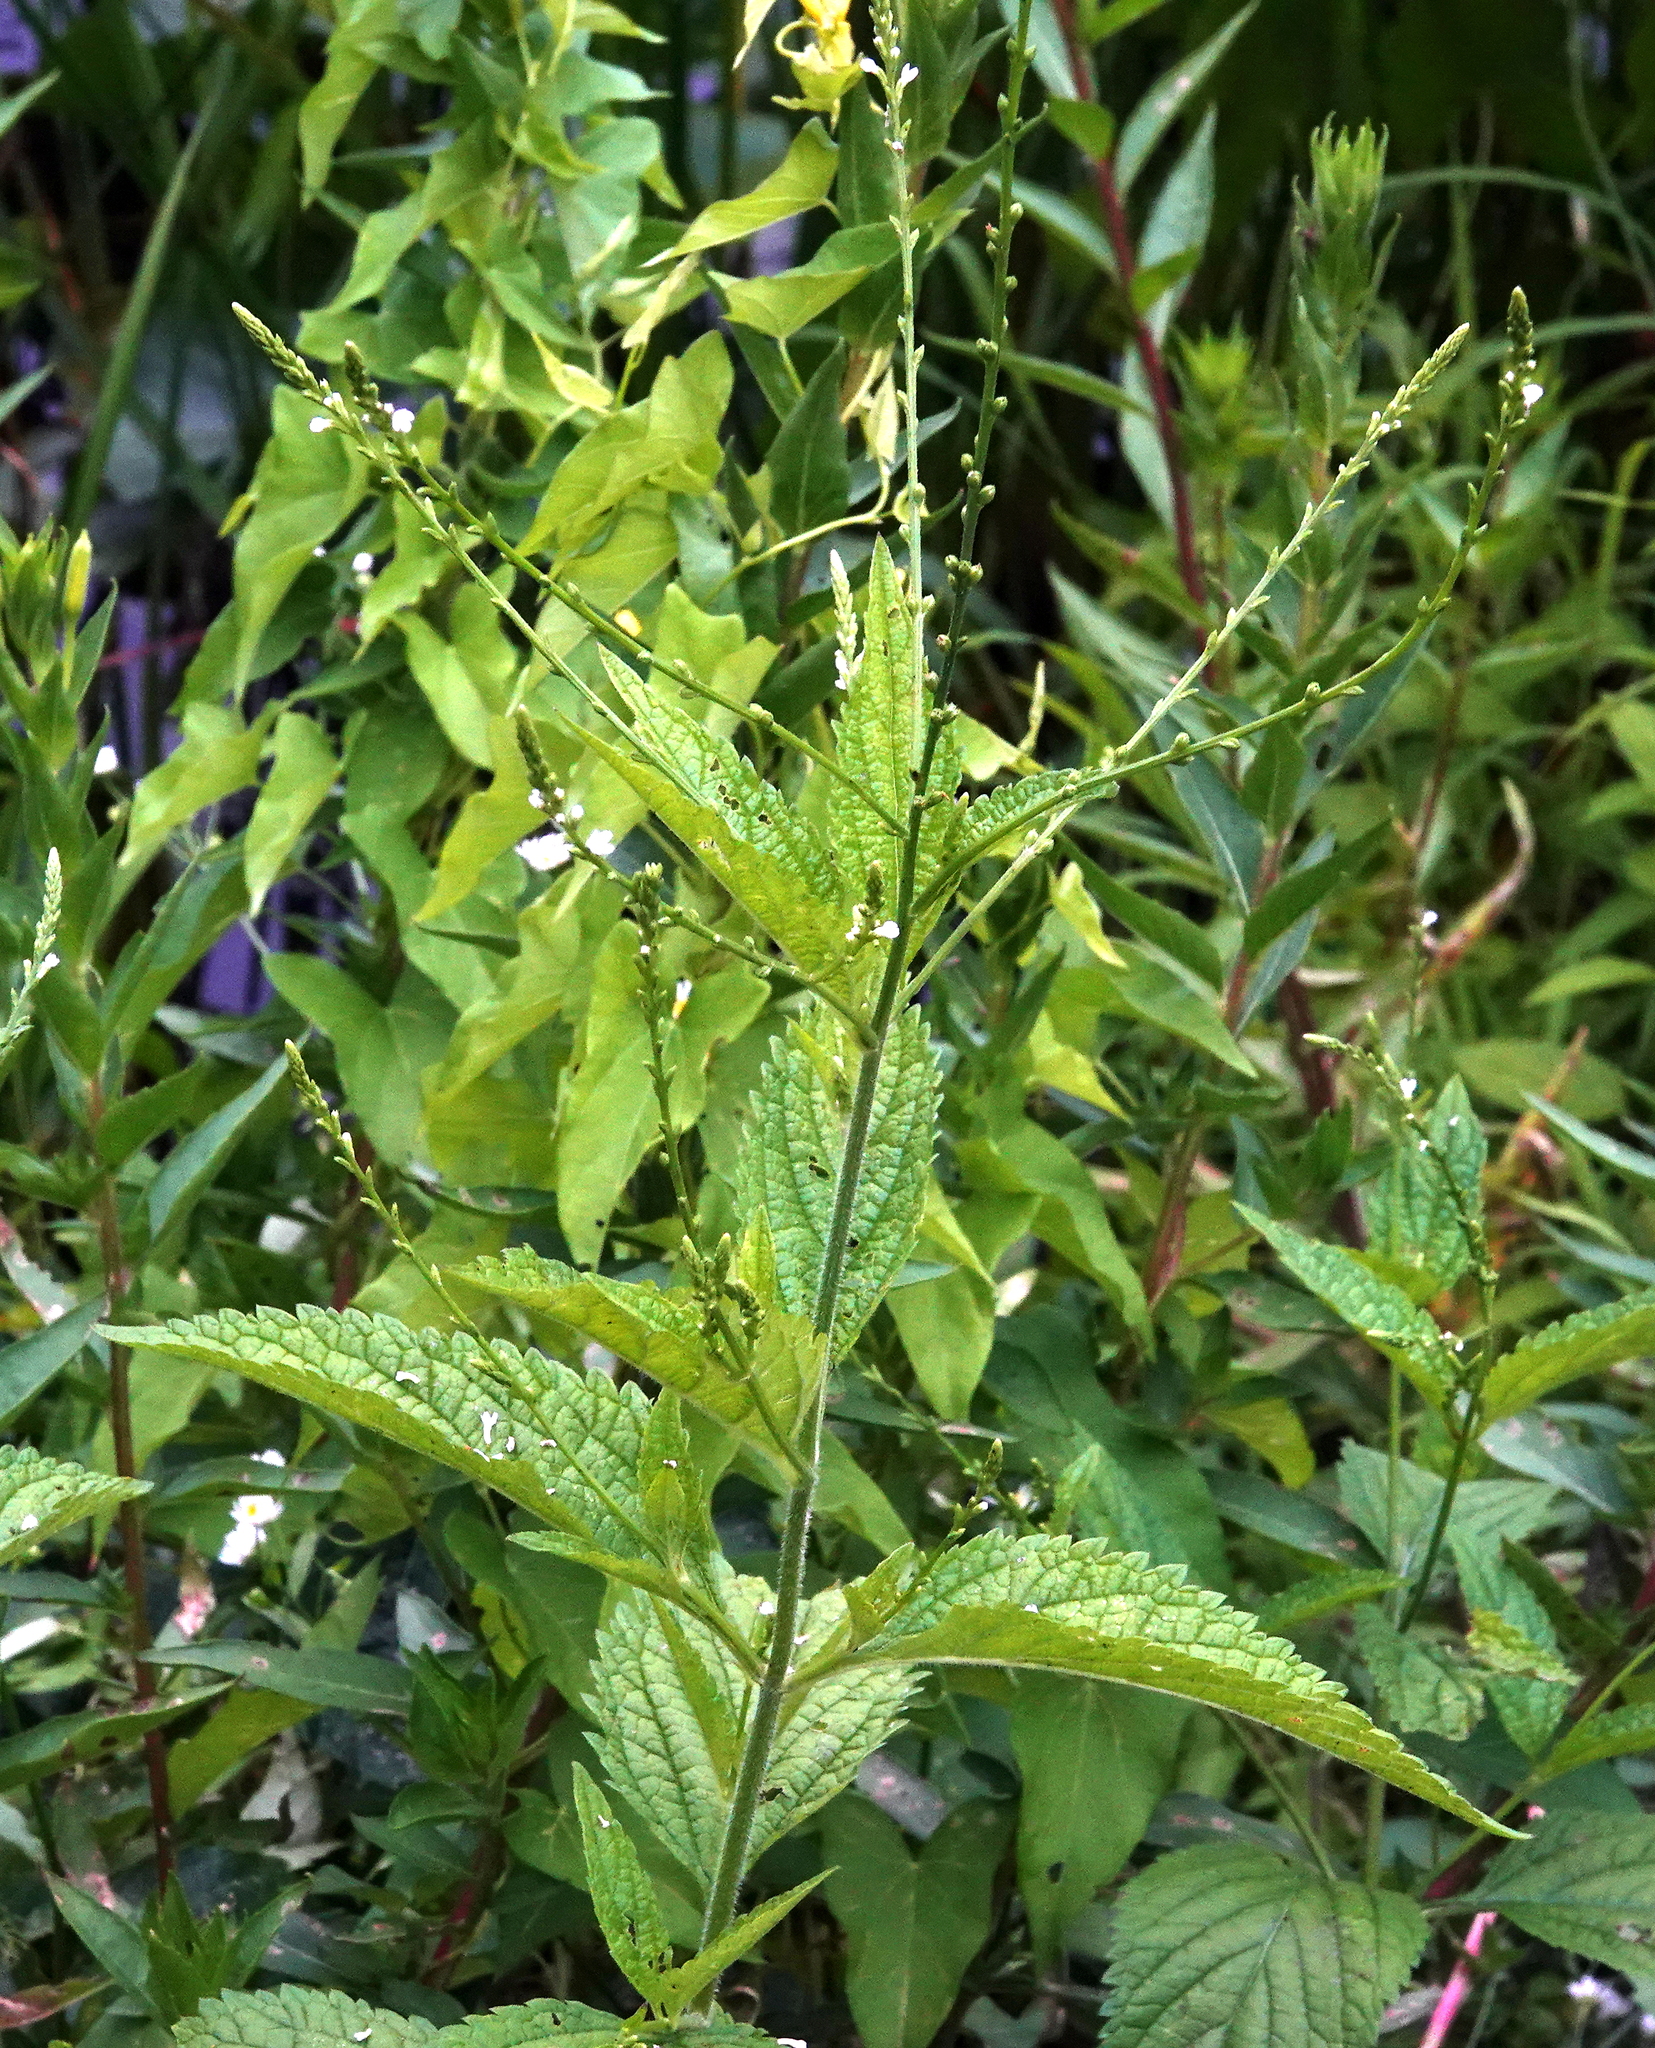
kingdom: Plantae
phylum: Tracheophyta
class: Magnoliopsida
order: Lamiales
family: Verbenaceae
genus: Verbena
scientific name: Verbena urticifolia
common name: Nettle-leaved vervain
